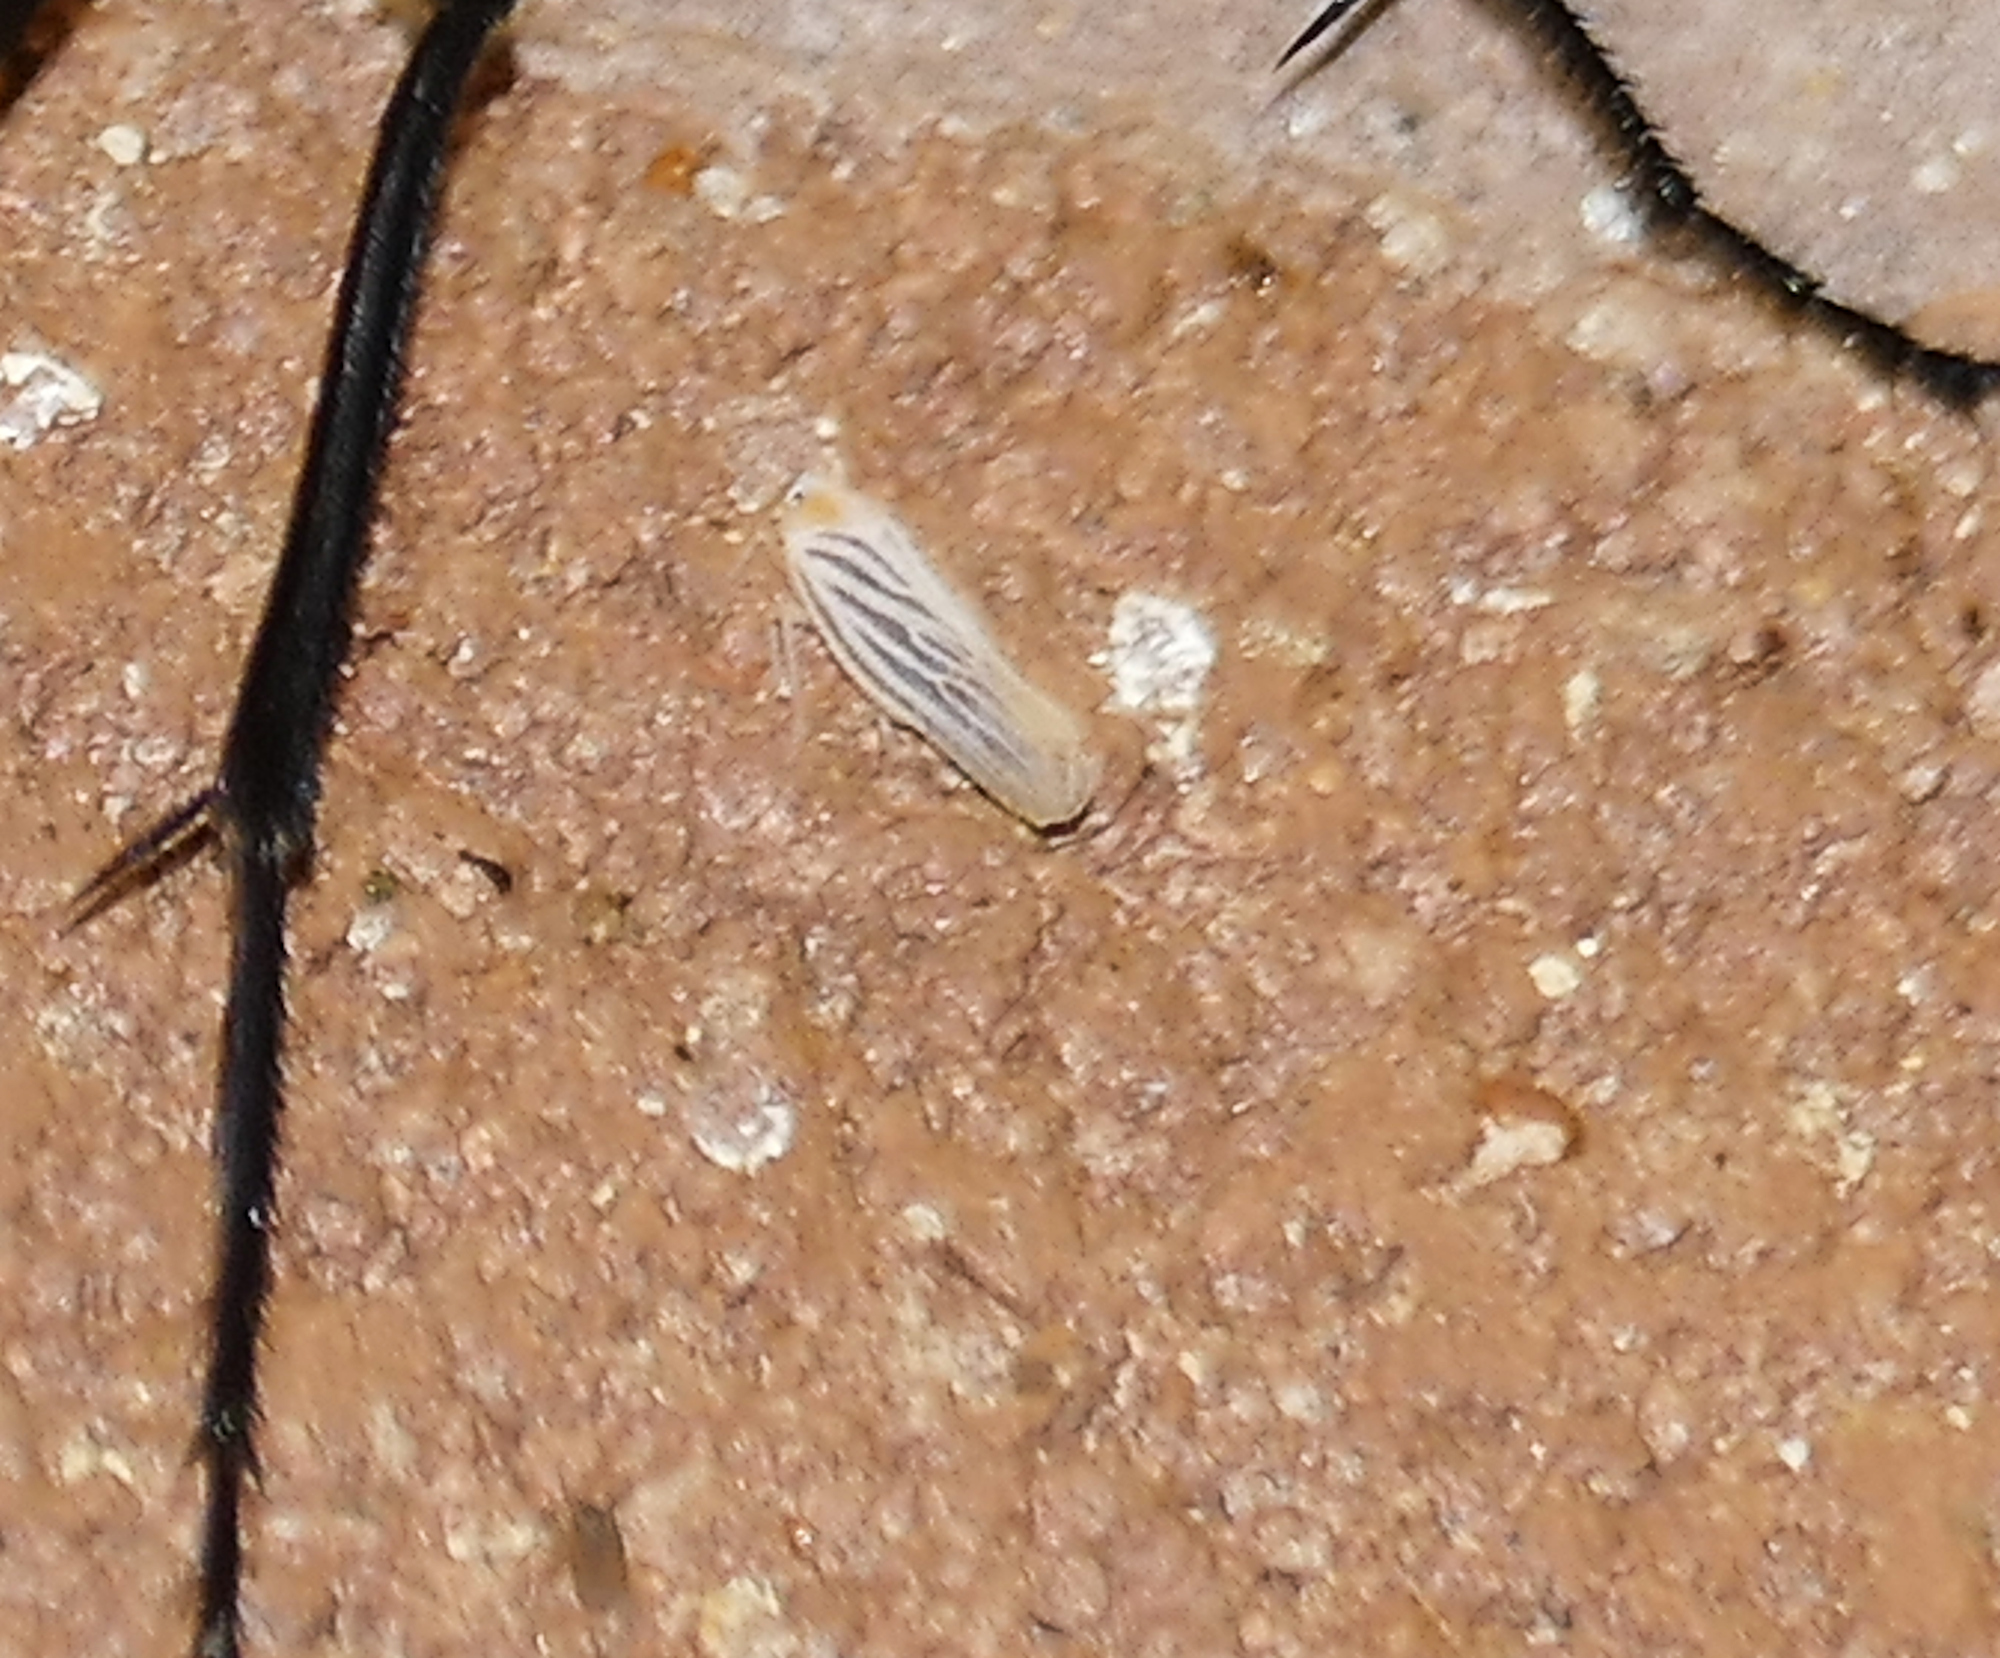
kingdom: Animalia
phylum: Arthropoda
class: Insecta
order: Hemiptera
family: Derbidae
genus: Persis
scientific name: Persis arizonensis
